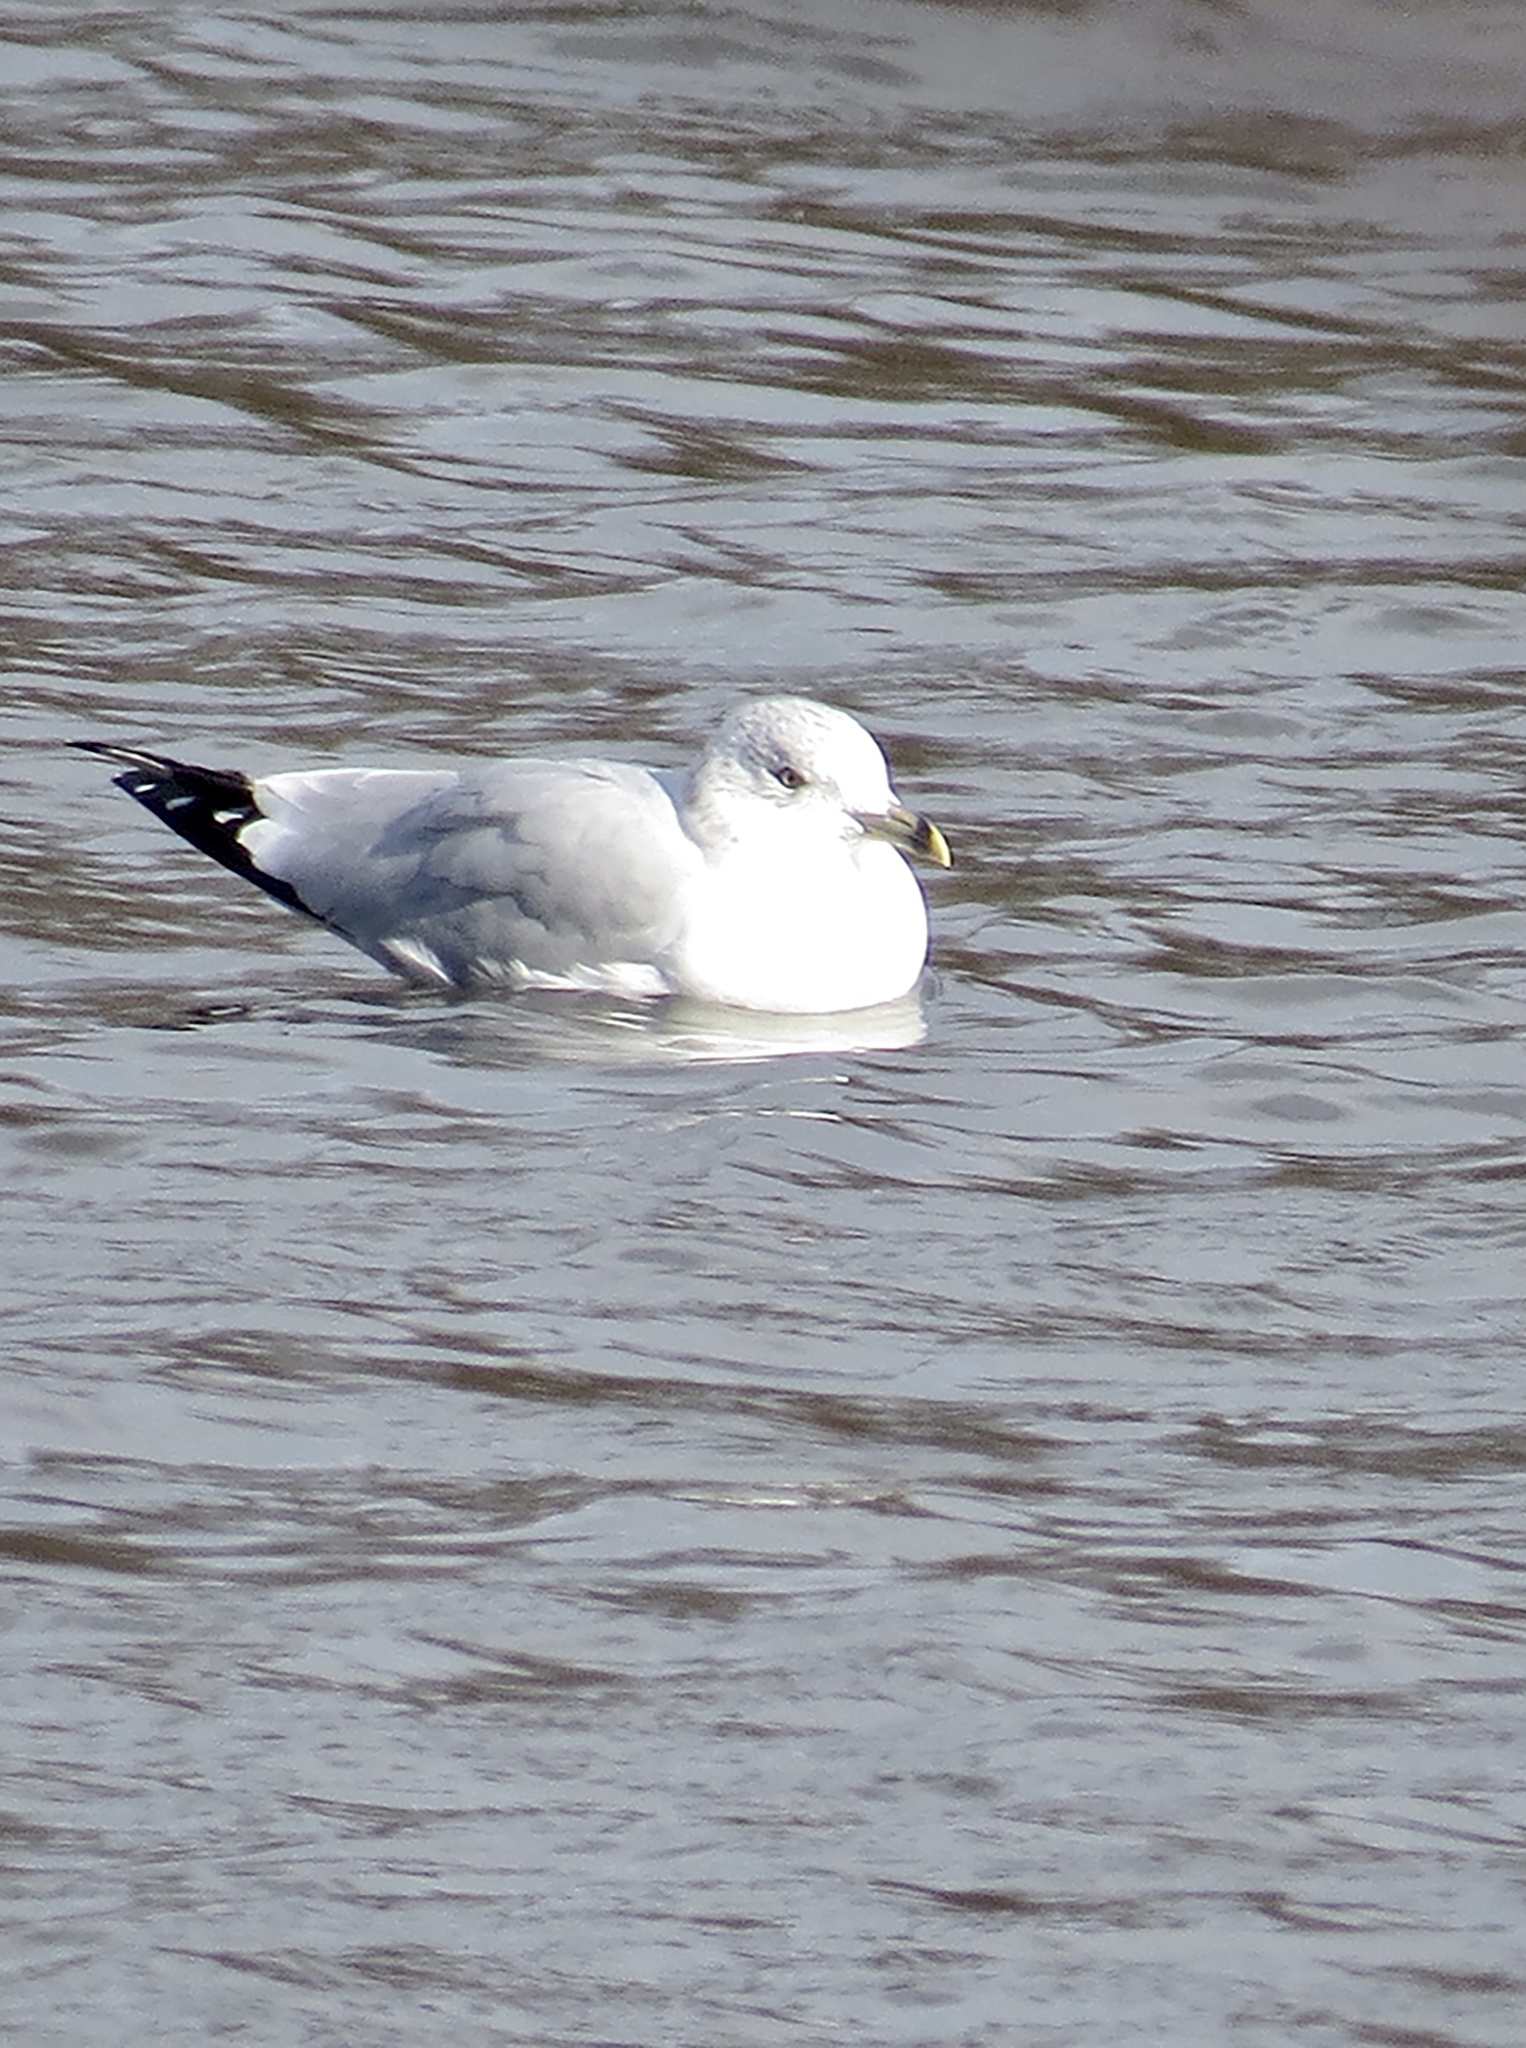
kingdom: Animalia
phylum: Chordata
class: Aves
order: Charadriiformes
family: Laridae
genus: Larus
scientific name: Larus delawarensis
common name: Ring-billed gull
